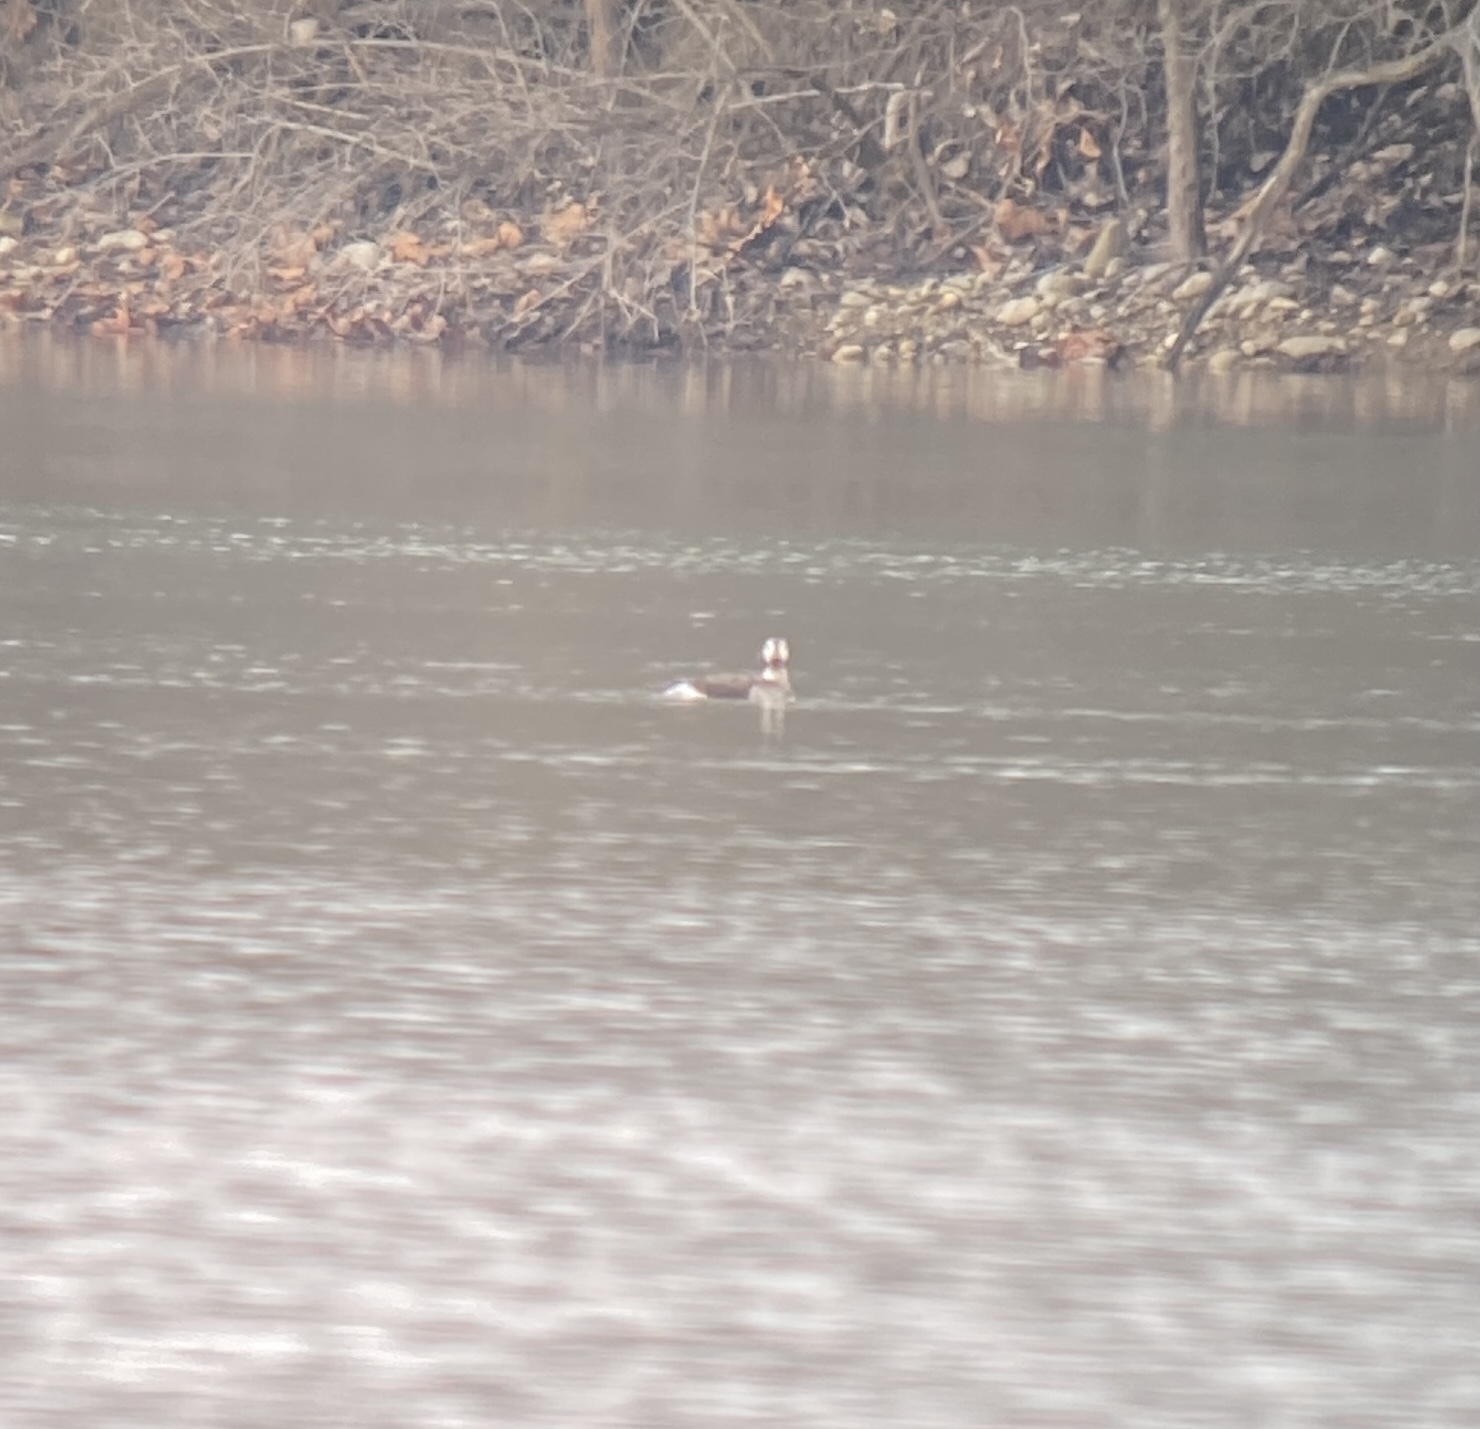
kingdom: Animalia
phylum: Chordata
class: Aves
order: Anseriformes
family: Anatidae
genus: Clangula
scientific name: Clangula hyemalis
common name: Long-tailed duck
